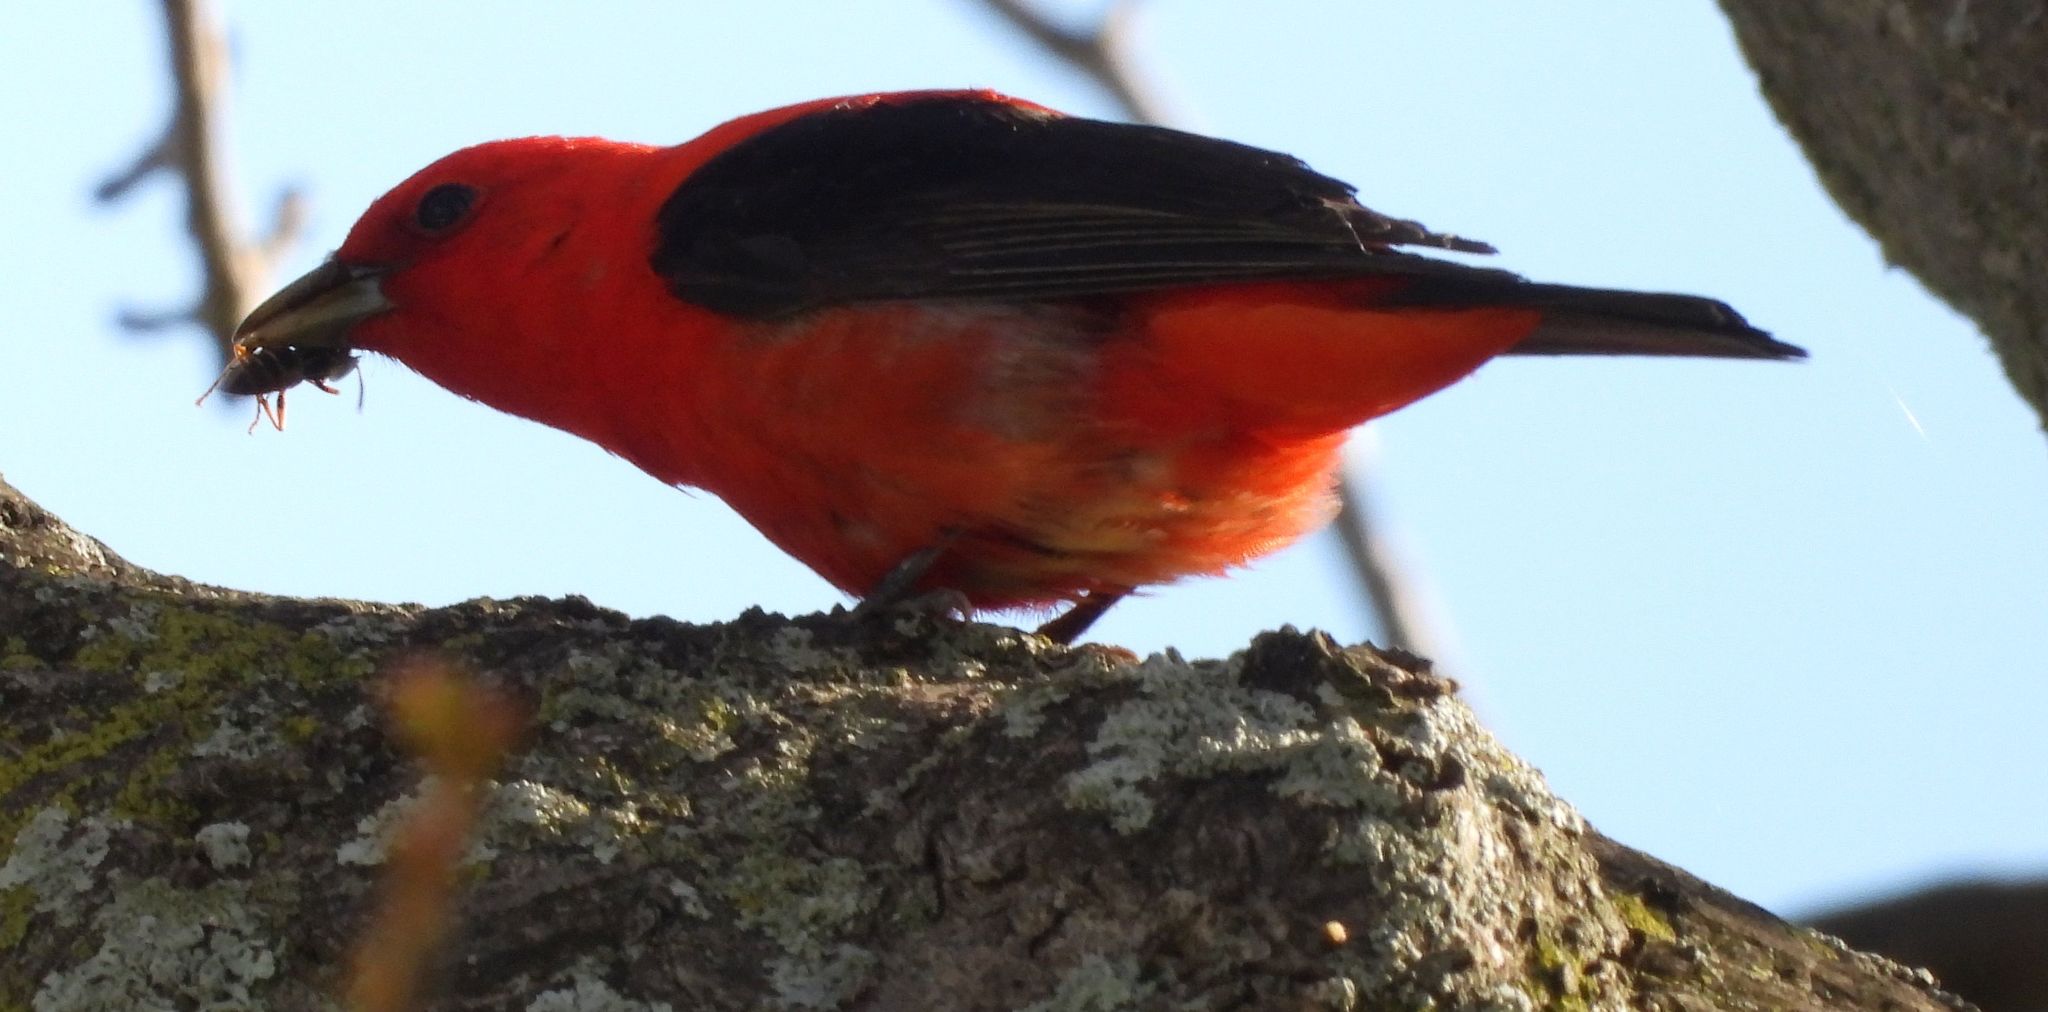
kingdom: Animalia
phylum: Chordata
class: Aves
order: Passeriformes
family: Cardinalidae
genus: Piranga
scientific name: Piranga olivacea
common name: Scarlet tanager
